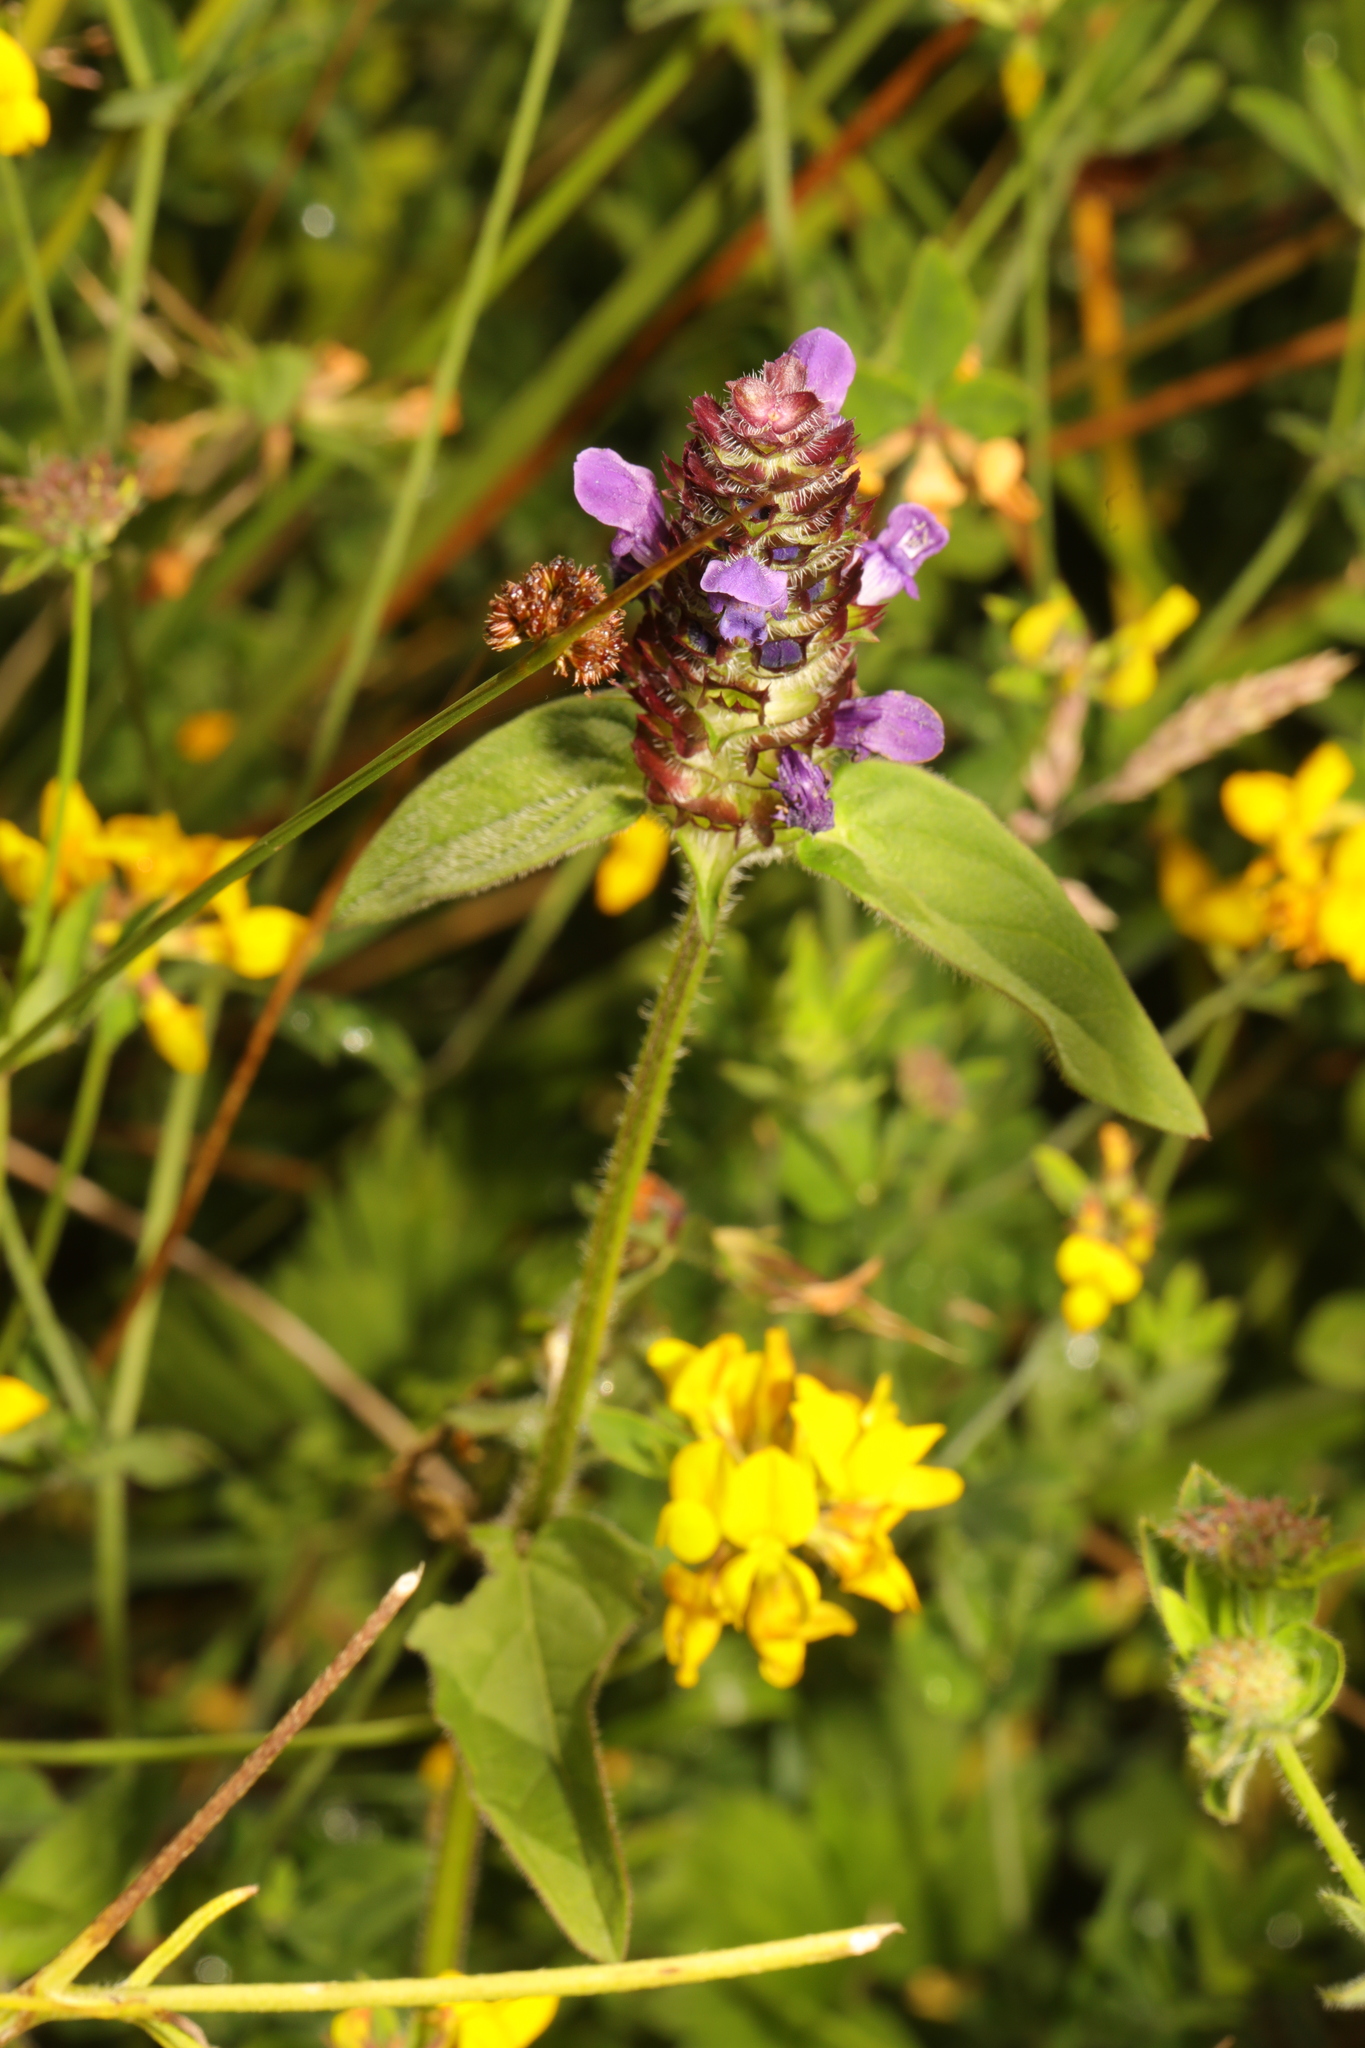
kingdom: Plantae
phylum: Tracheophyta
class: Magnoliopsida
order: Lamiales
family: Lamiaceae
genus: Prunella
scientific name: Prunella vulgaris
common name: Heal-all
